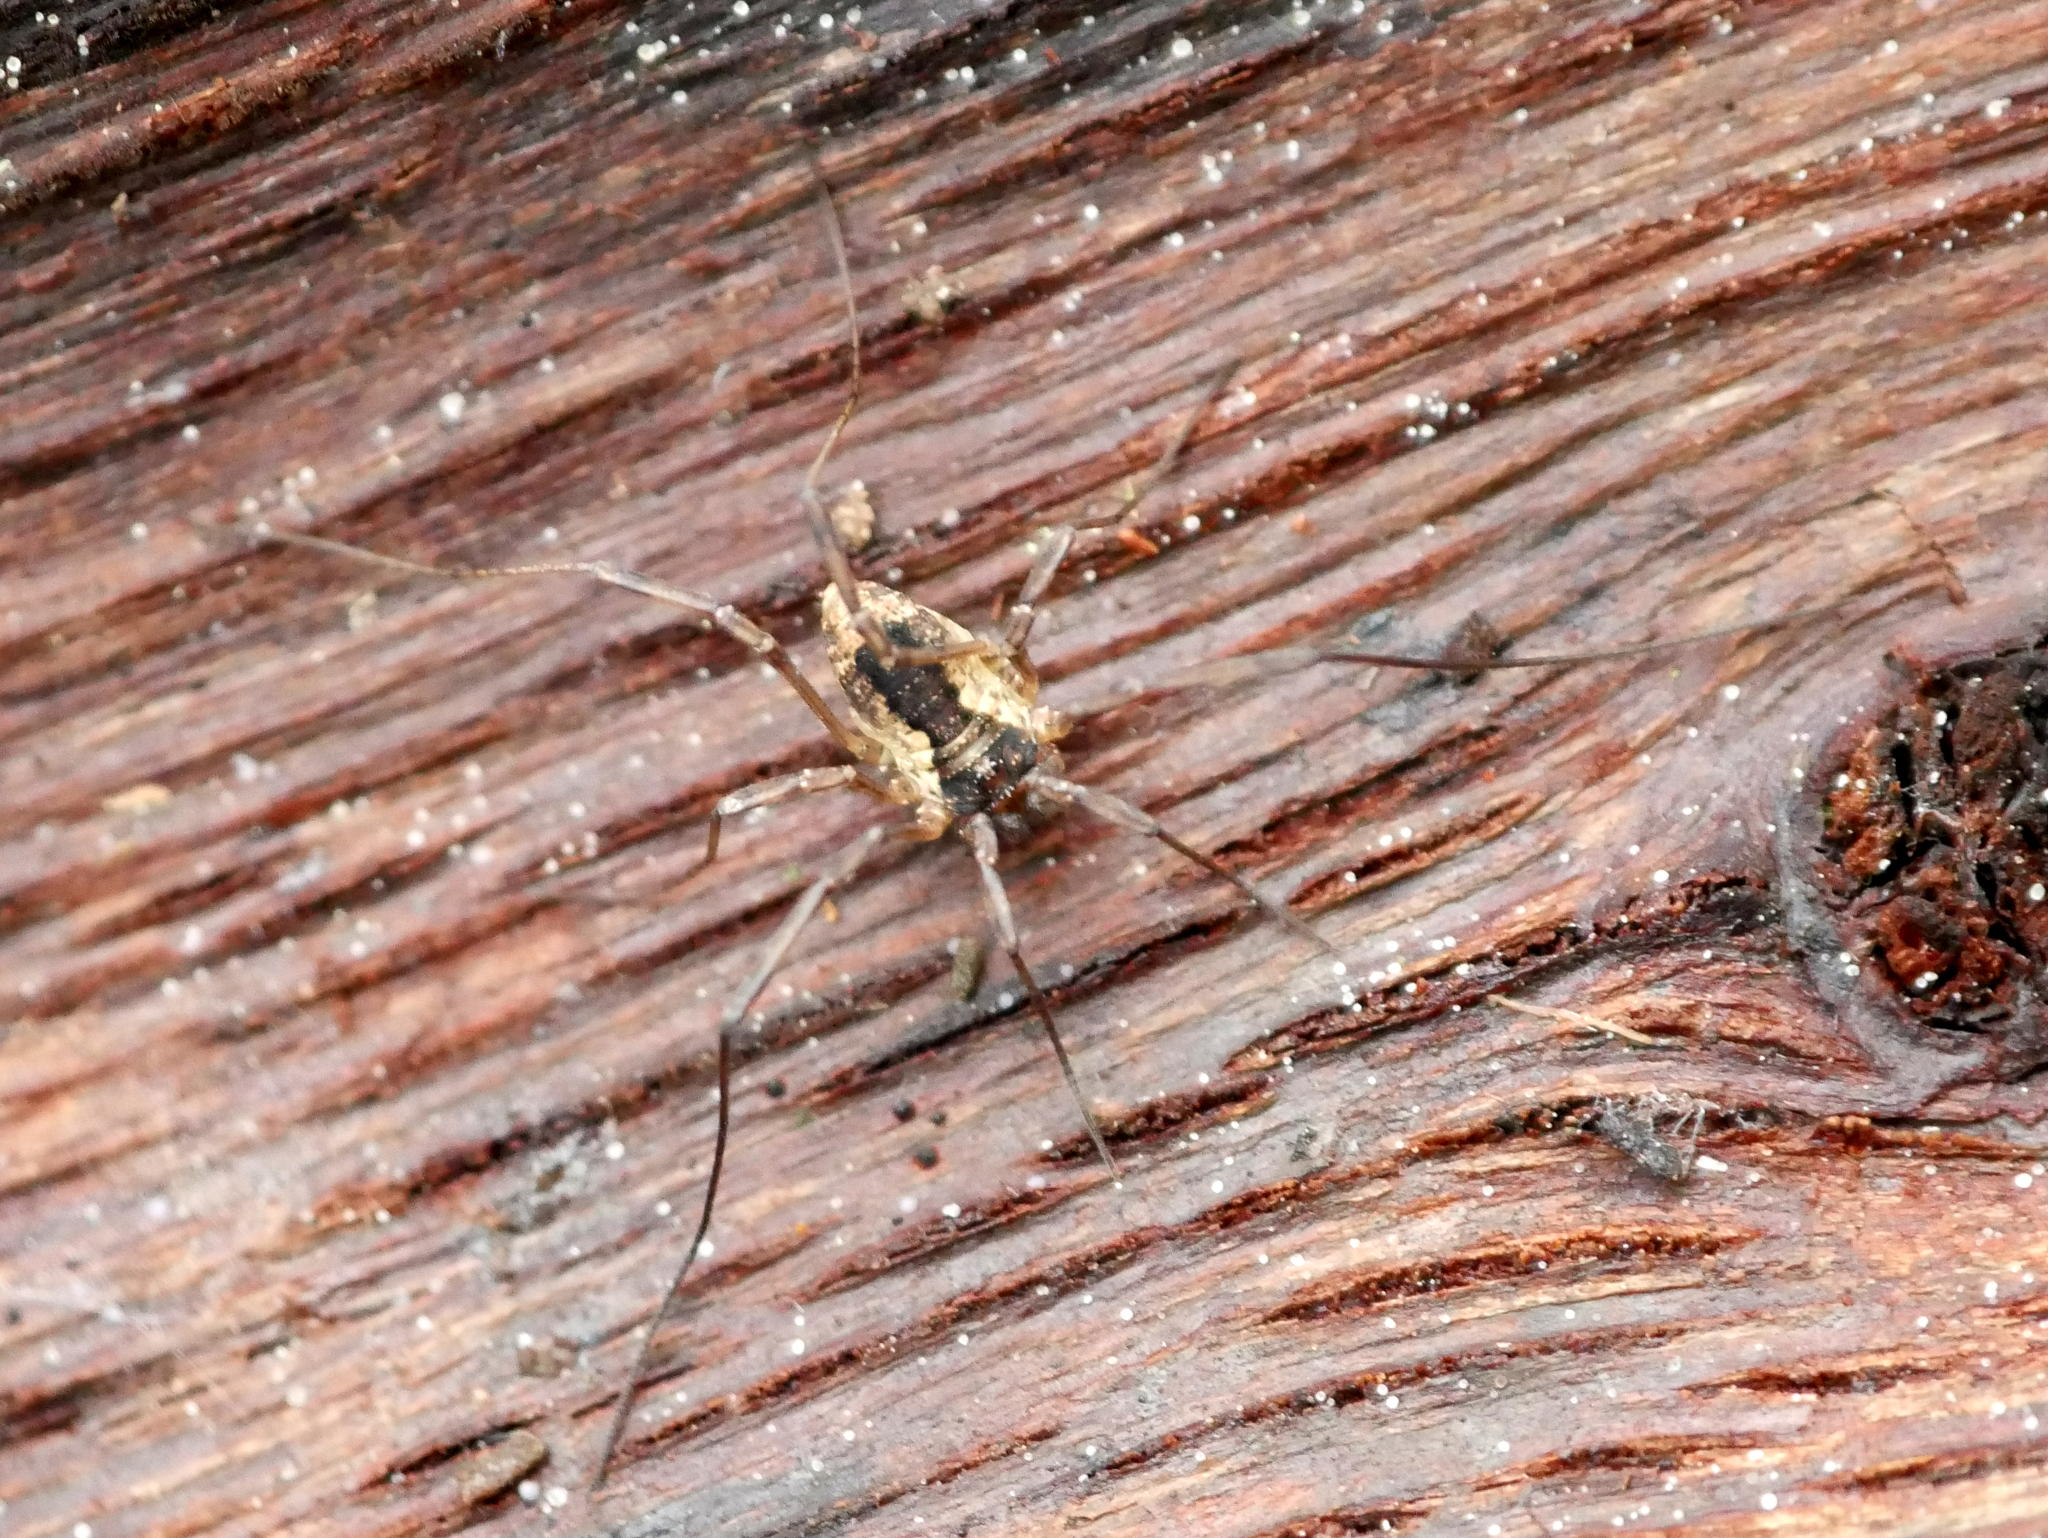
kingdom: Animalia
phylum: Arthropoda
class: Arachnida
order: Opiliones
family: Phalangiidae
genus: Oligolophus
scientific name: Oligolophus tridens
